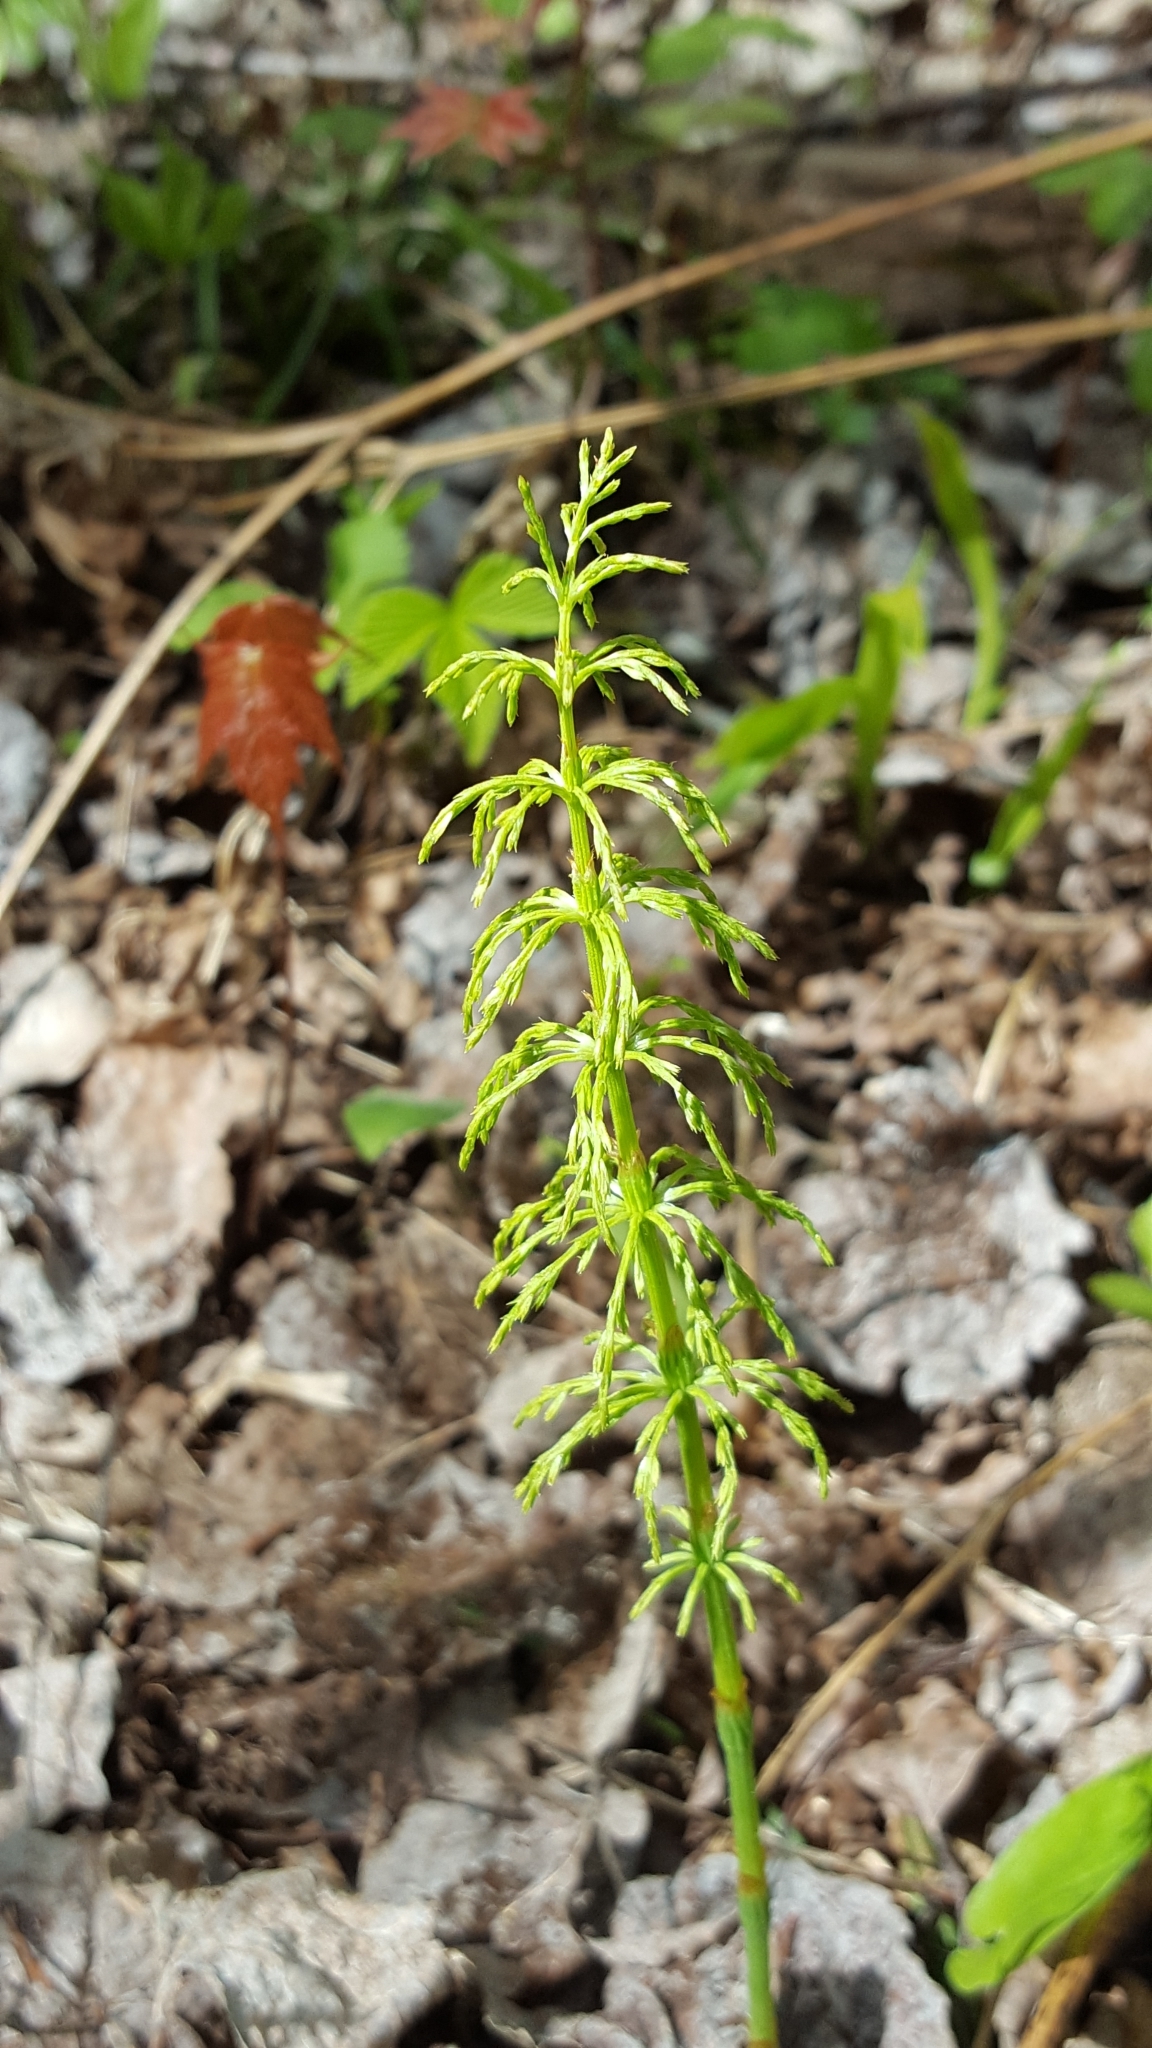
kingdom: Plantae
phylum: Tracheophyta
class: Polypodiopsida
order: Equisetales
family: Equisetaceae
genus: Equisetum
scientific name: Equisetum sylvaticum
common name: Wood horsetail
